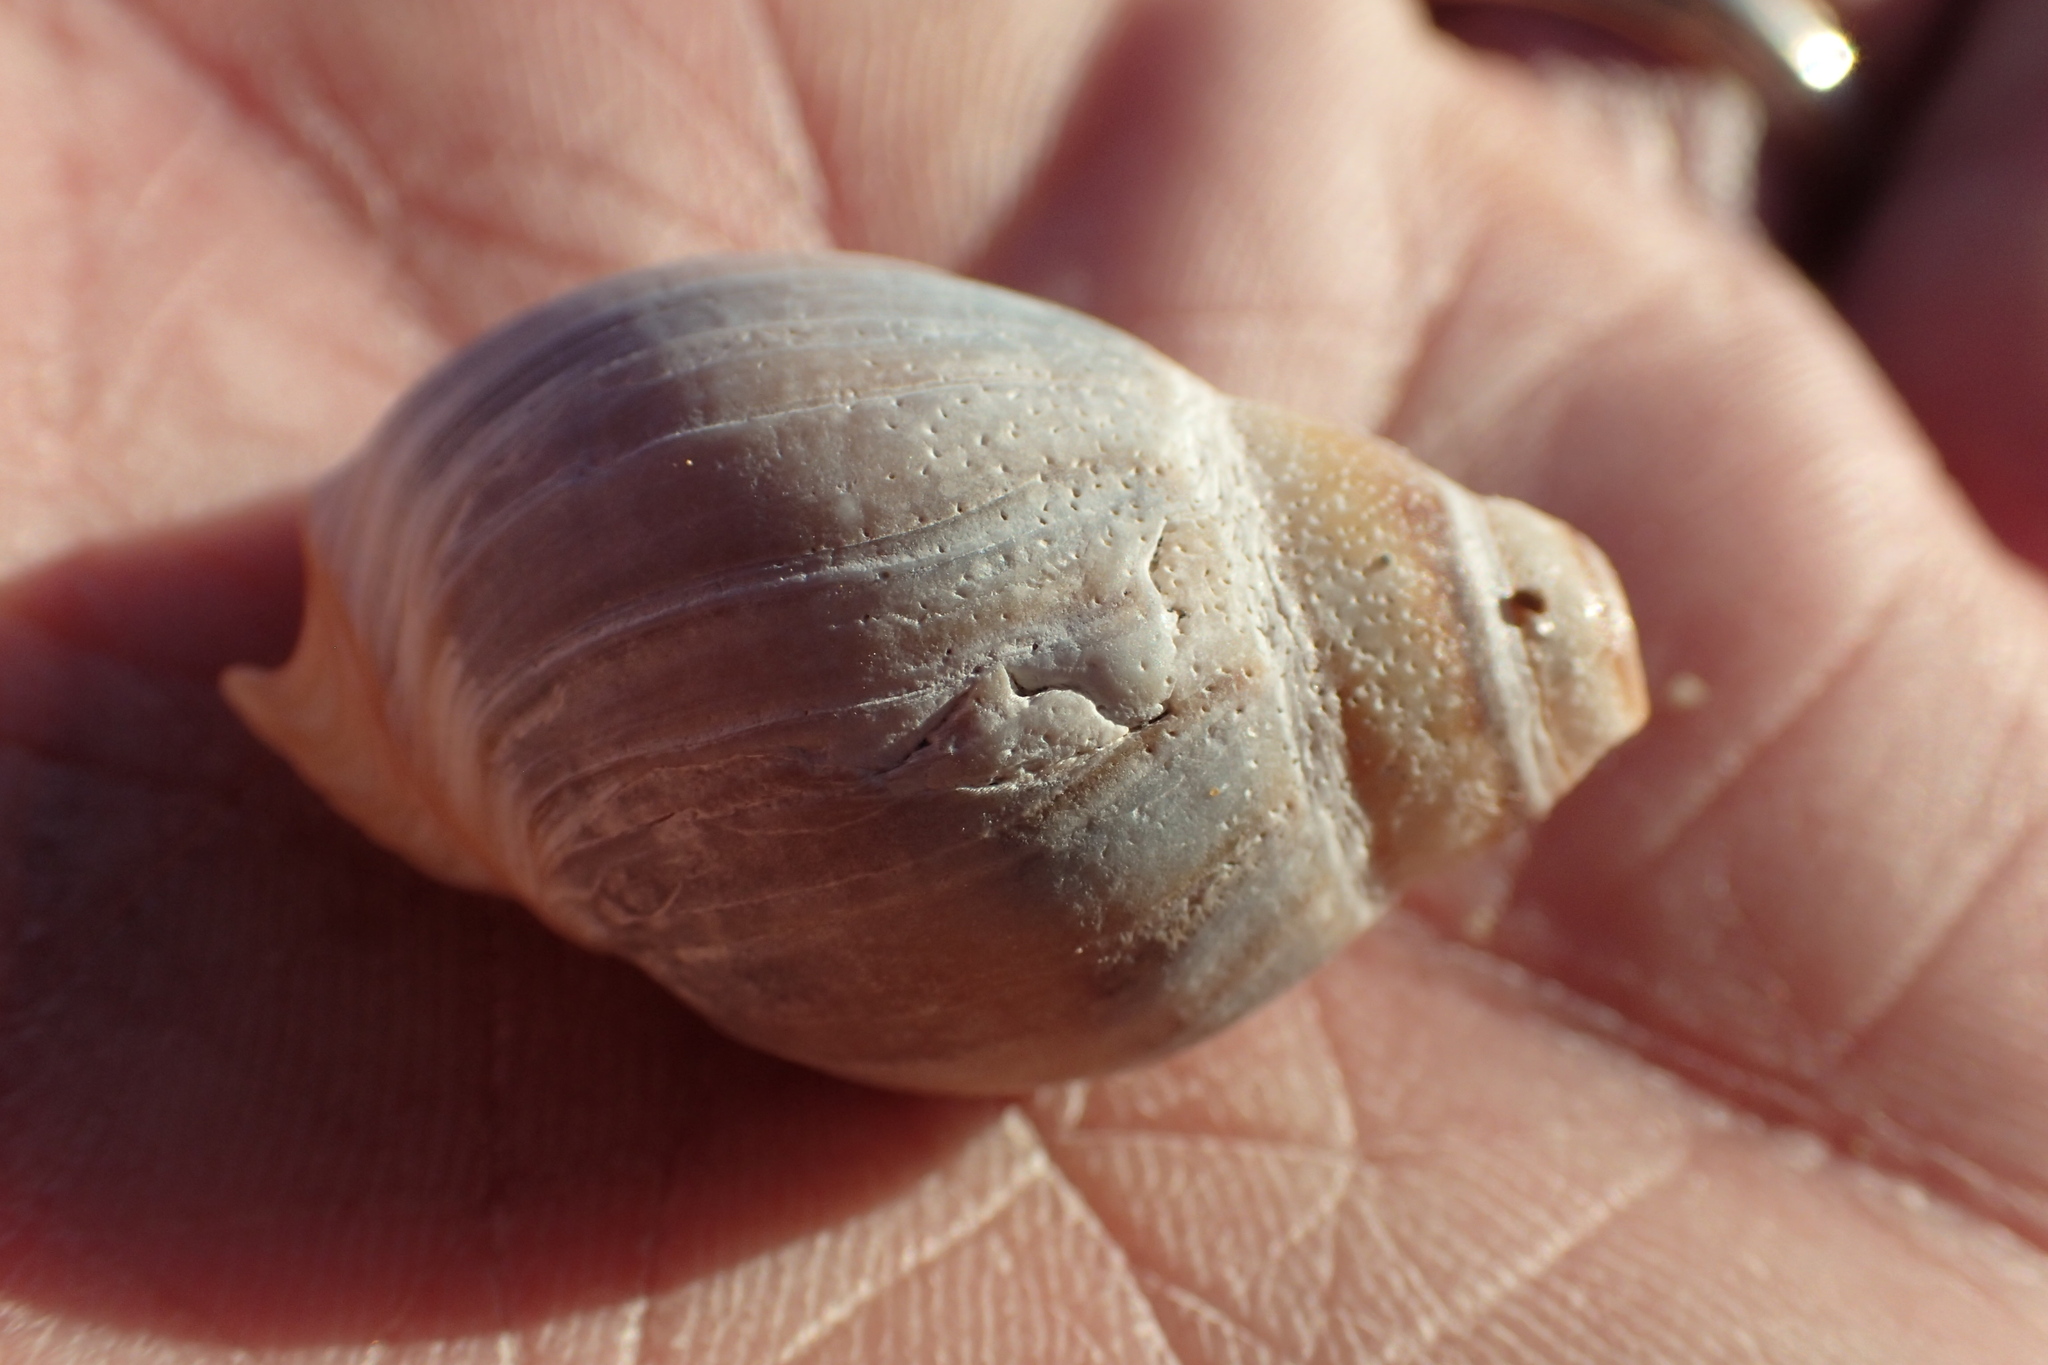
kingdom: Animalia
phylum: Mollusca
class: Gastropoda
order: Neogastropoda
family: Buccinanopsidae
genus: Buccinastrum
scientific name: Buccinastrum deforme
